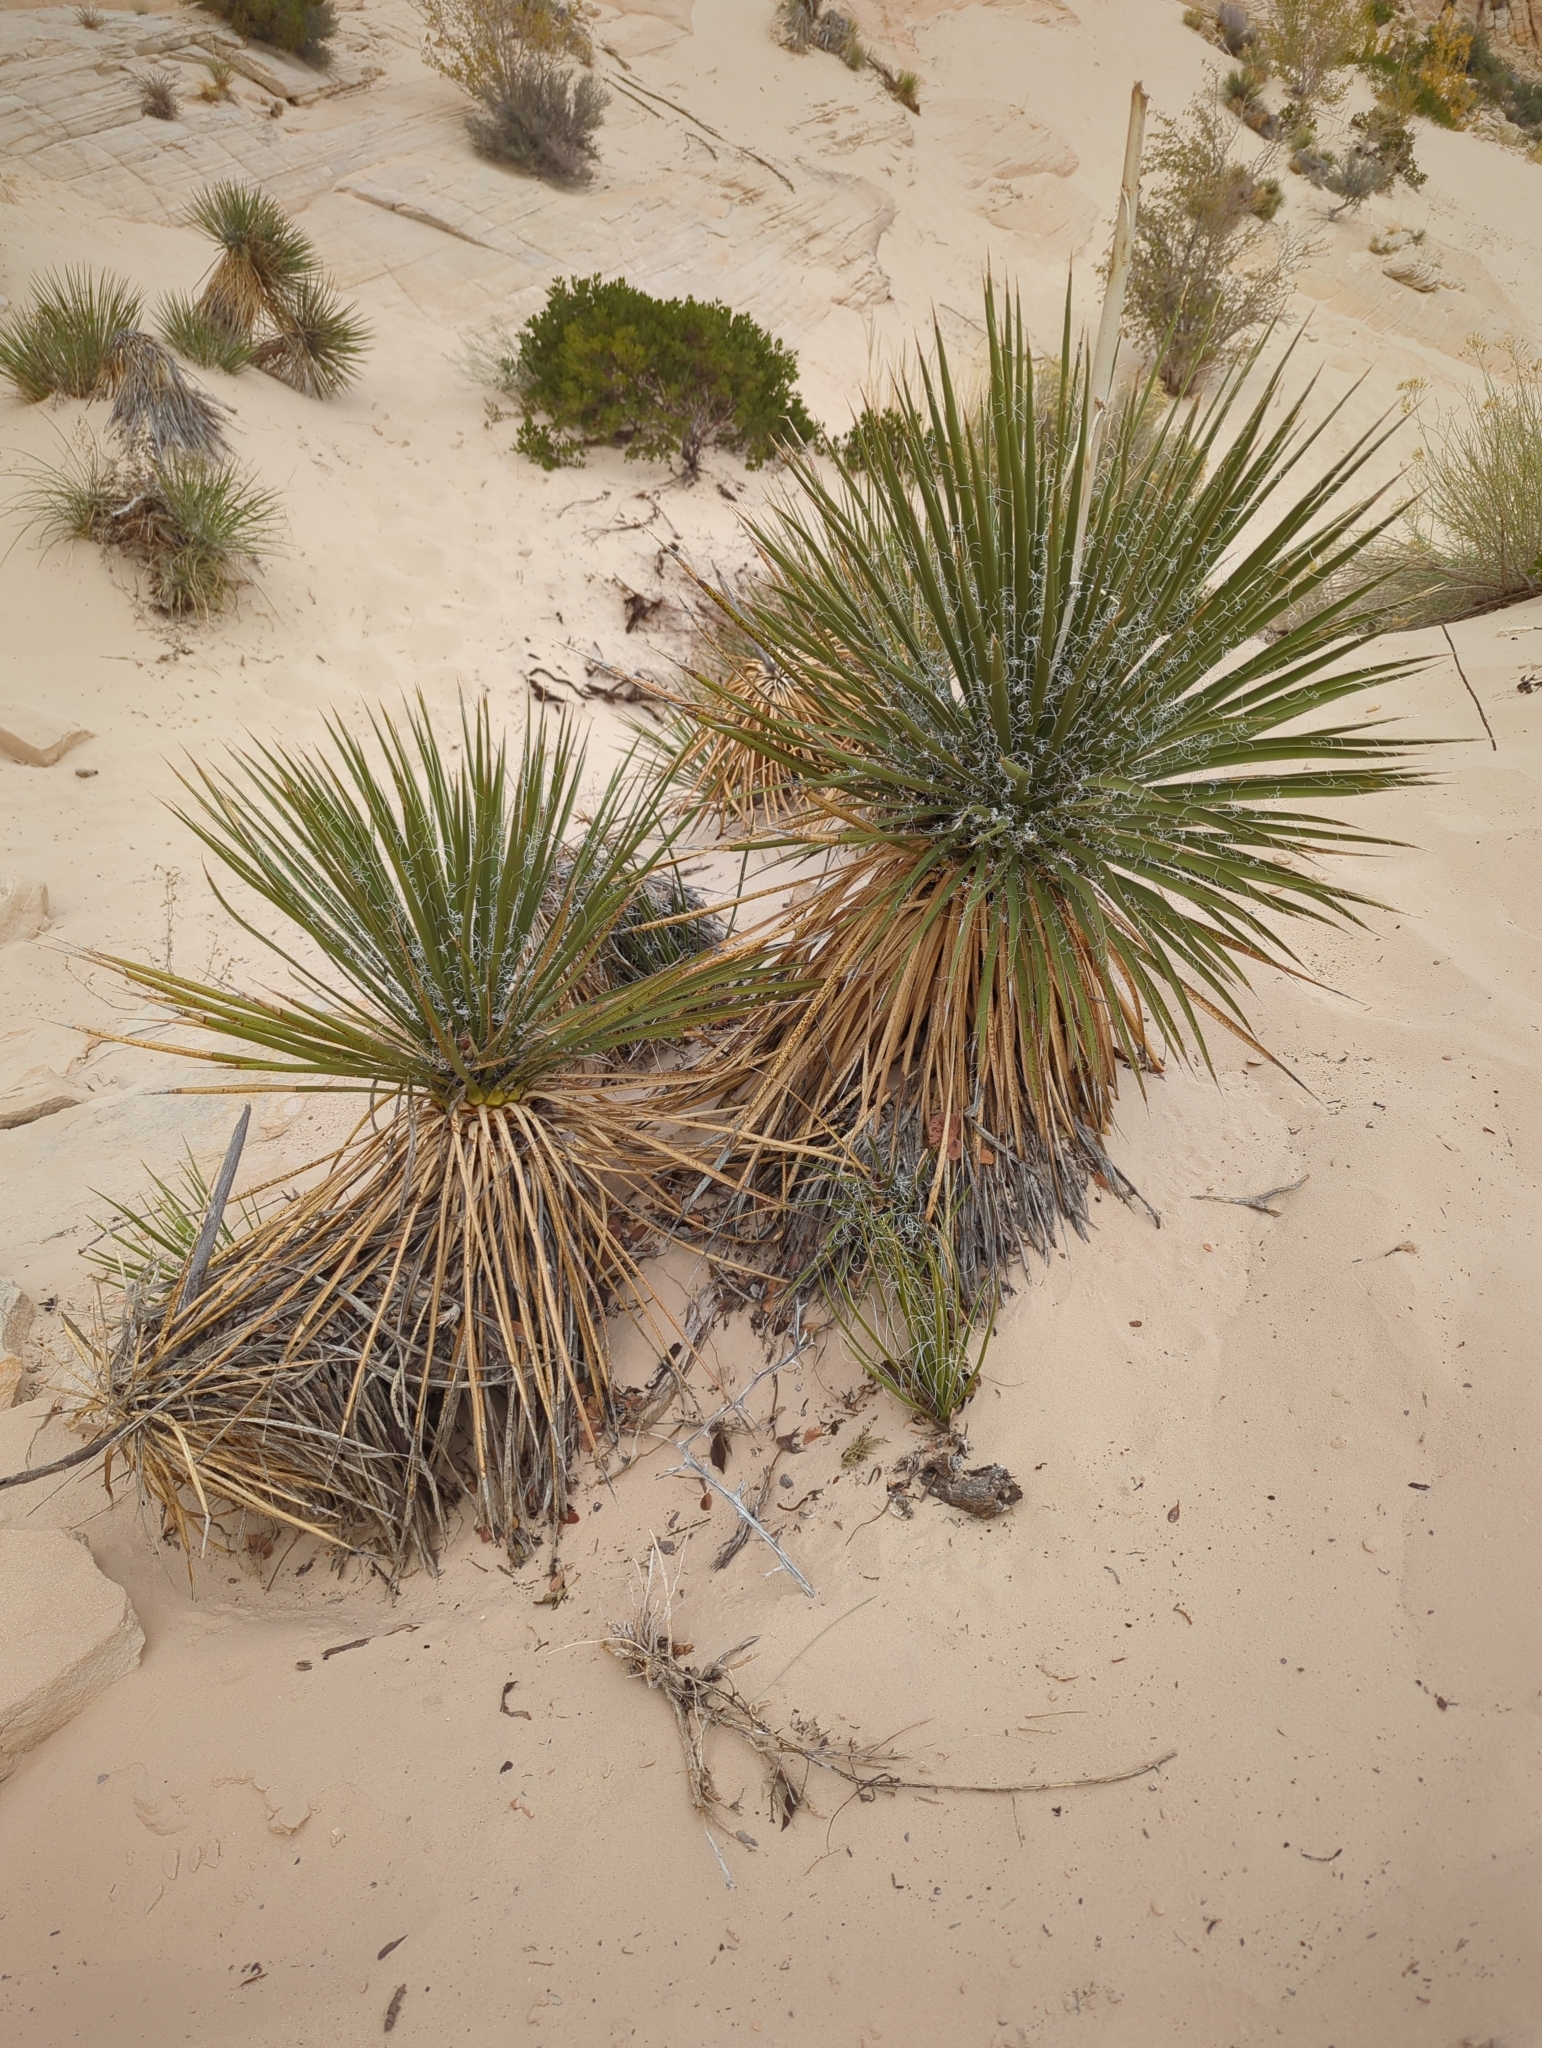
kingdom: Plantae
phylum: Tracheophyta
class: Liliopsida
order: Asparagales
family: Asparagaceae
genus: Yucca
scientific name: Yucca utahensis
